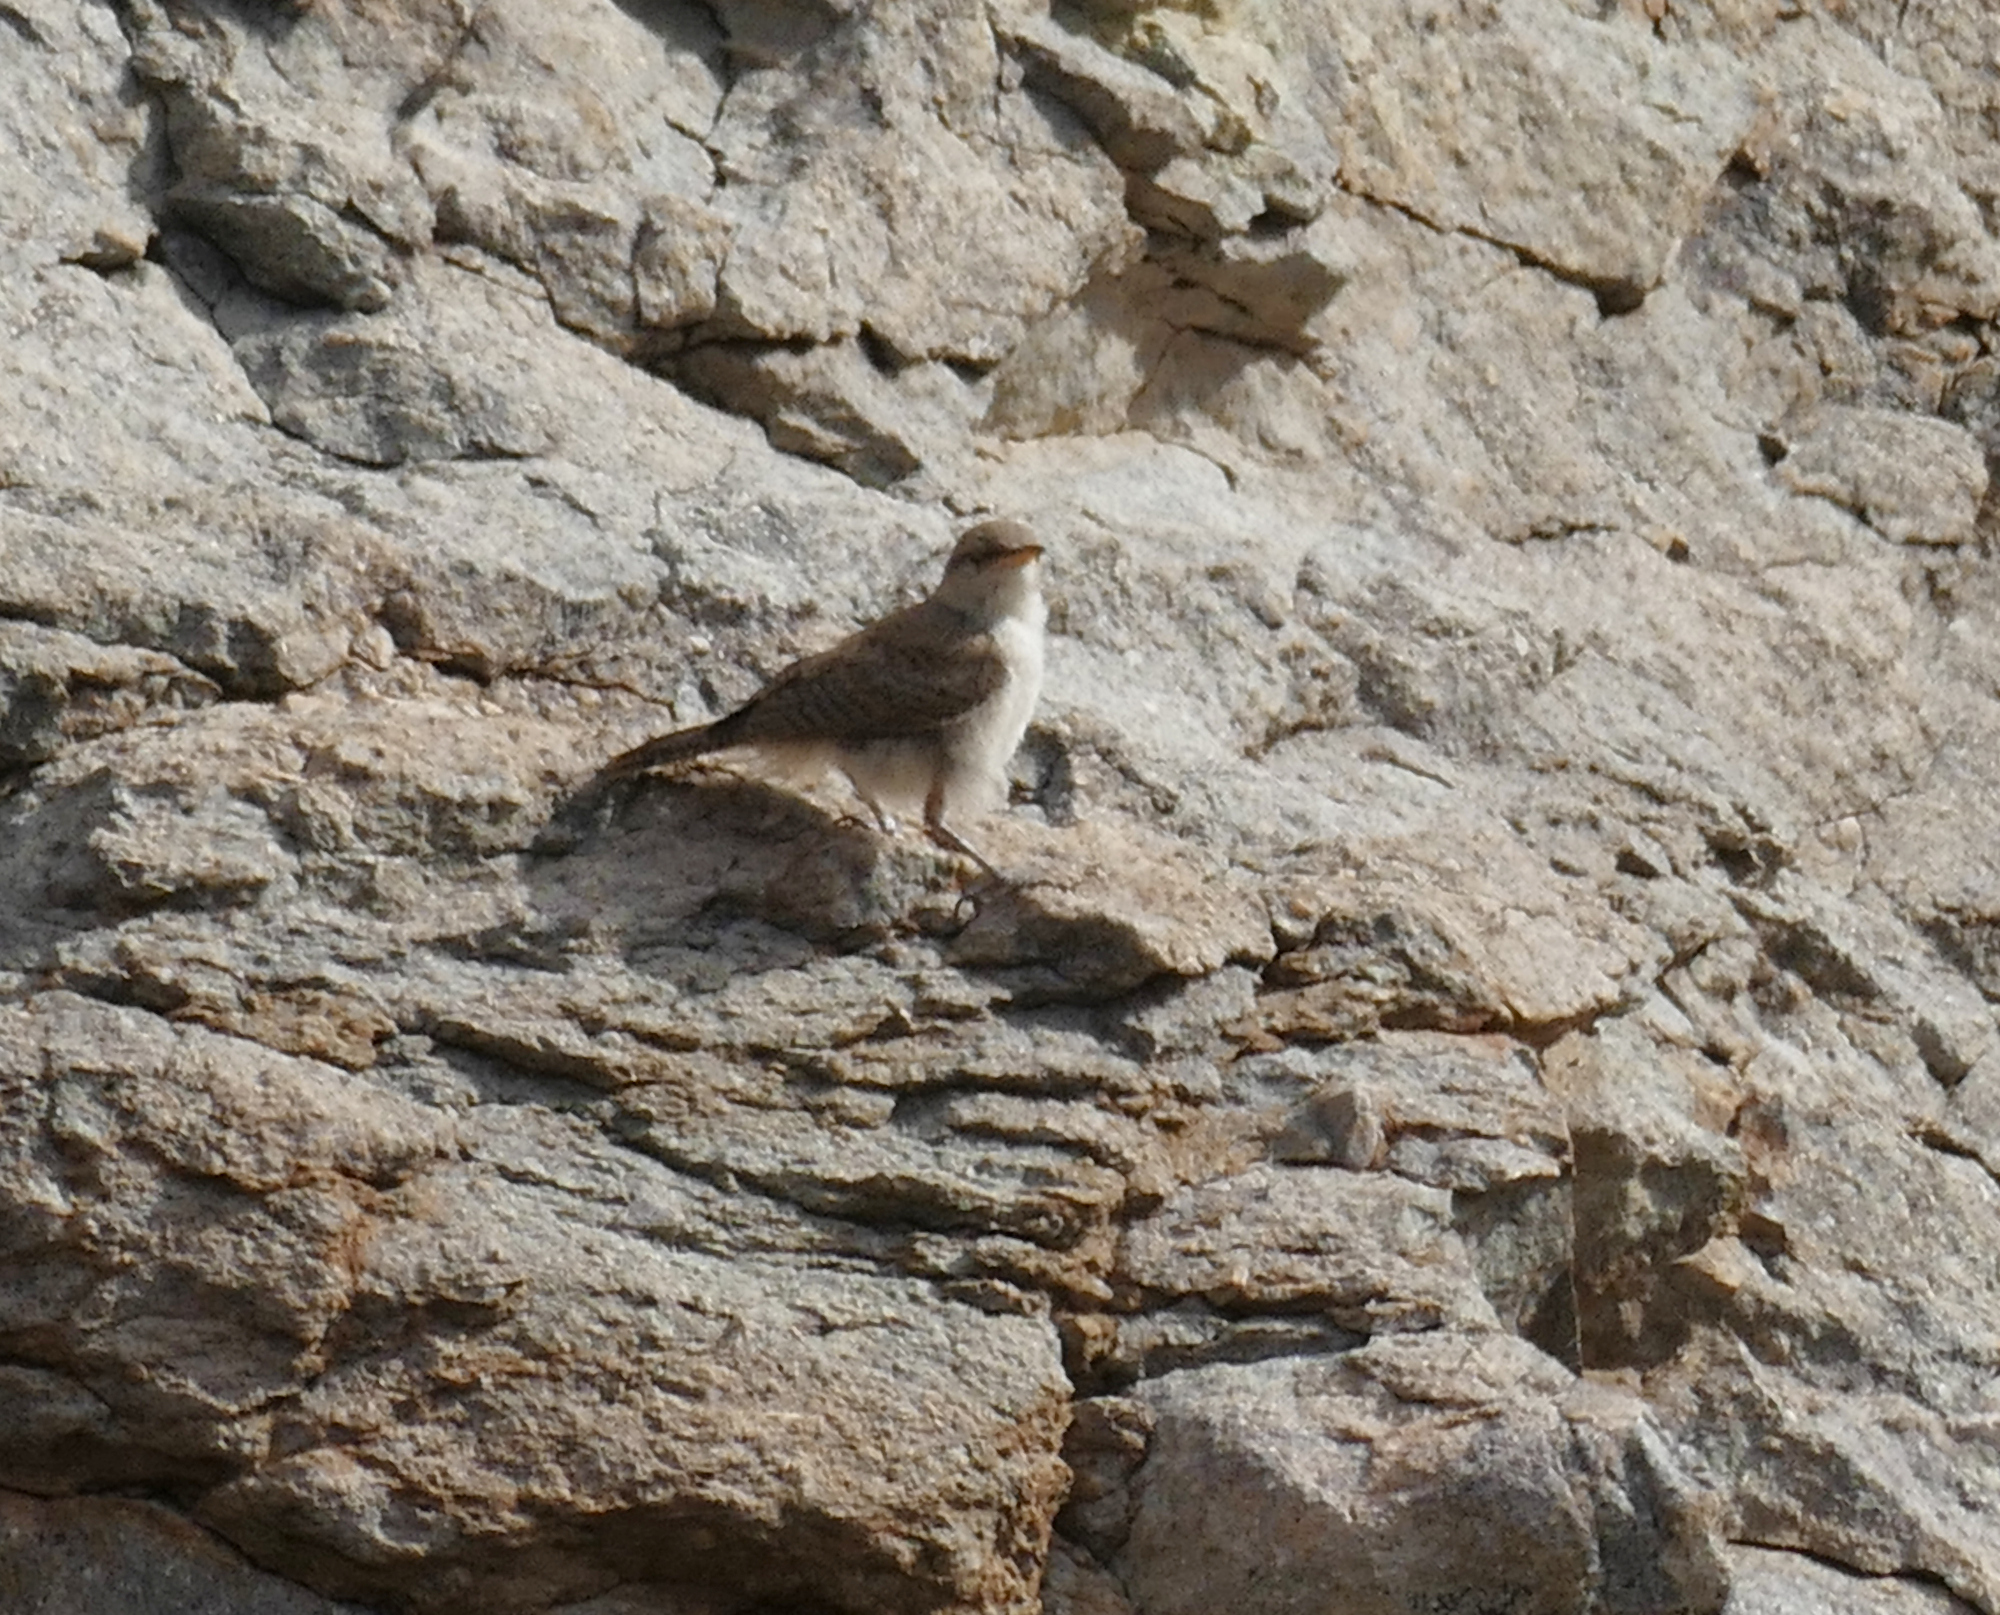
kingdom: Animalia
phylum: Chordata
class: Aves
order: Passeriformes
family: Troglodytidae
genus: Salpinctes
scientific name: Salpinctes obsoletus
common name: Rock wren
